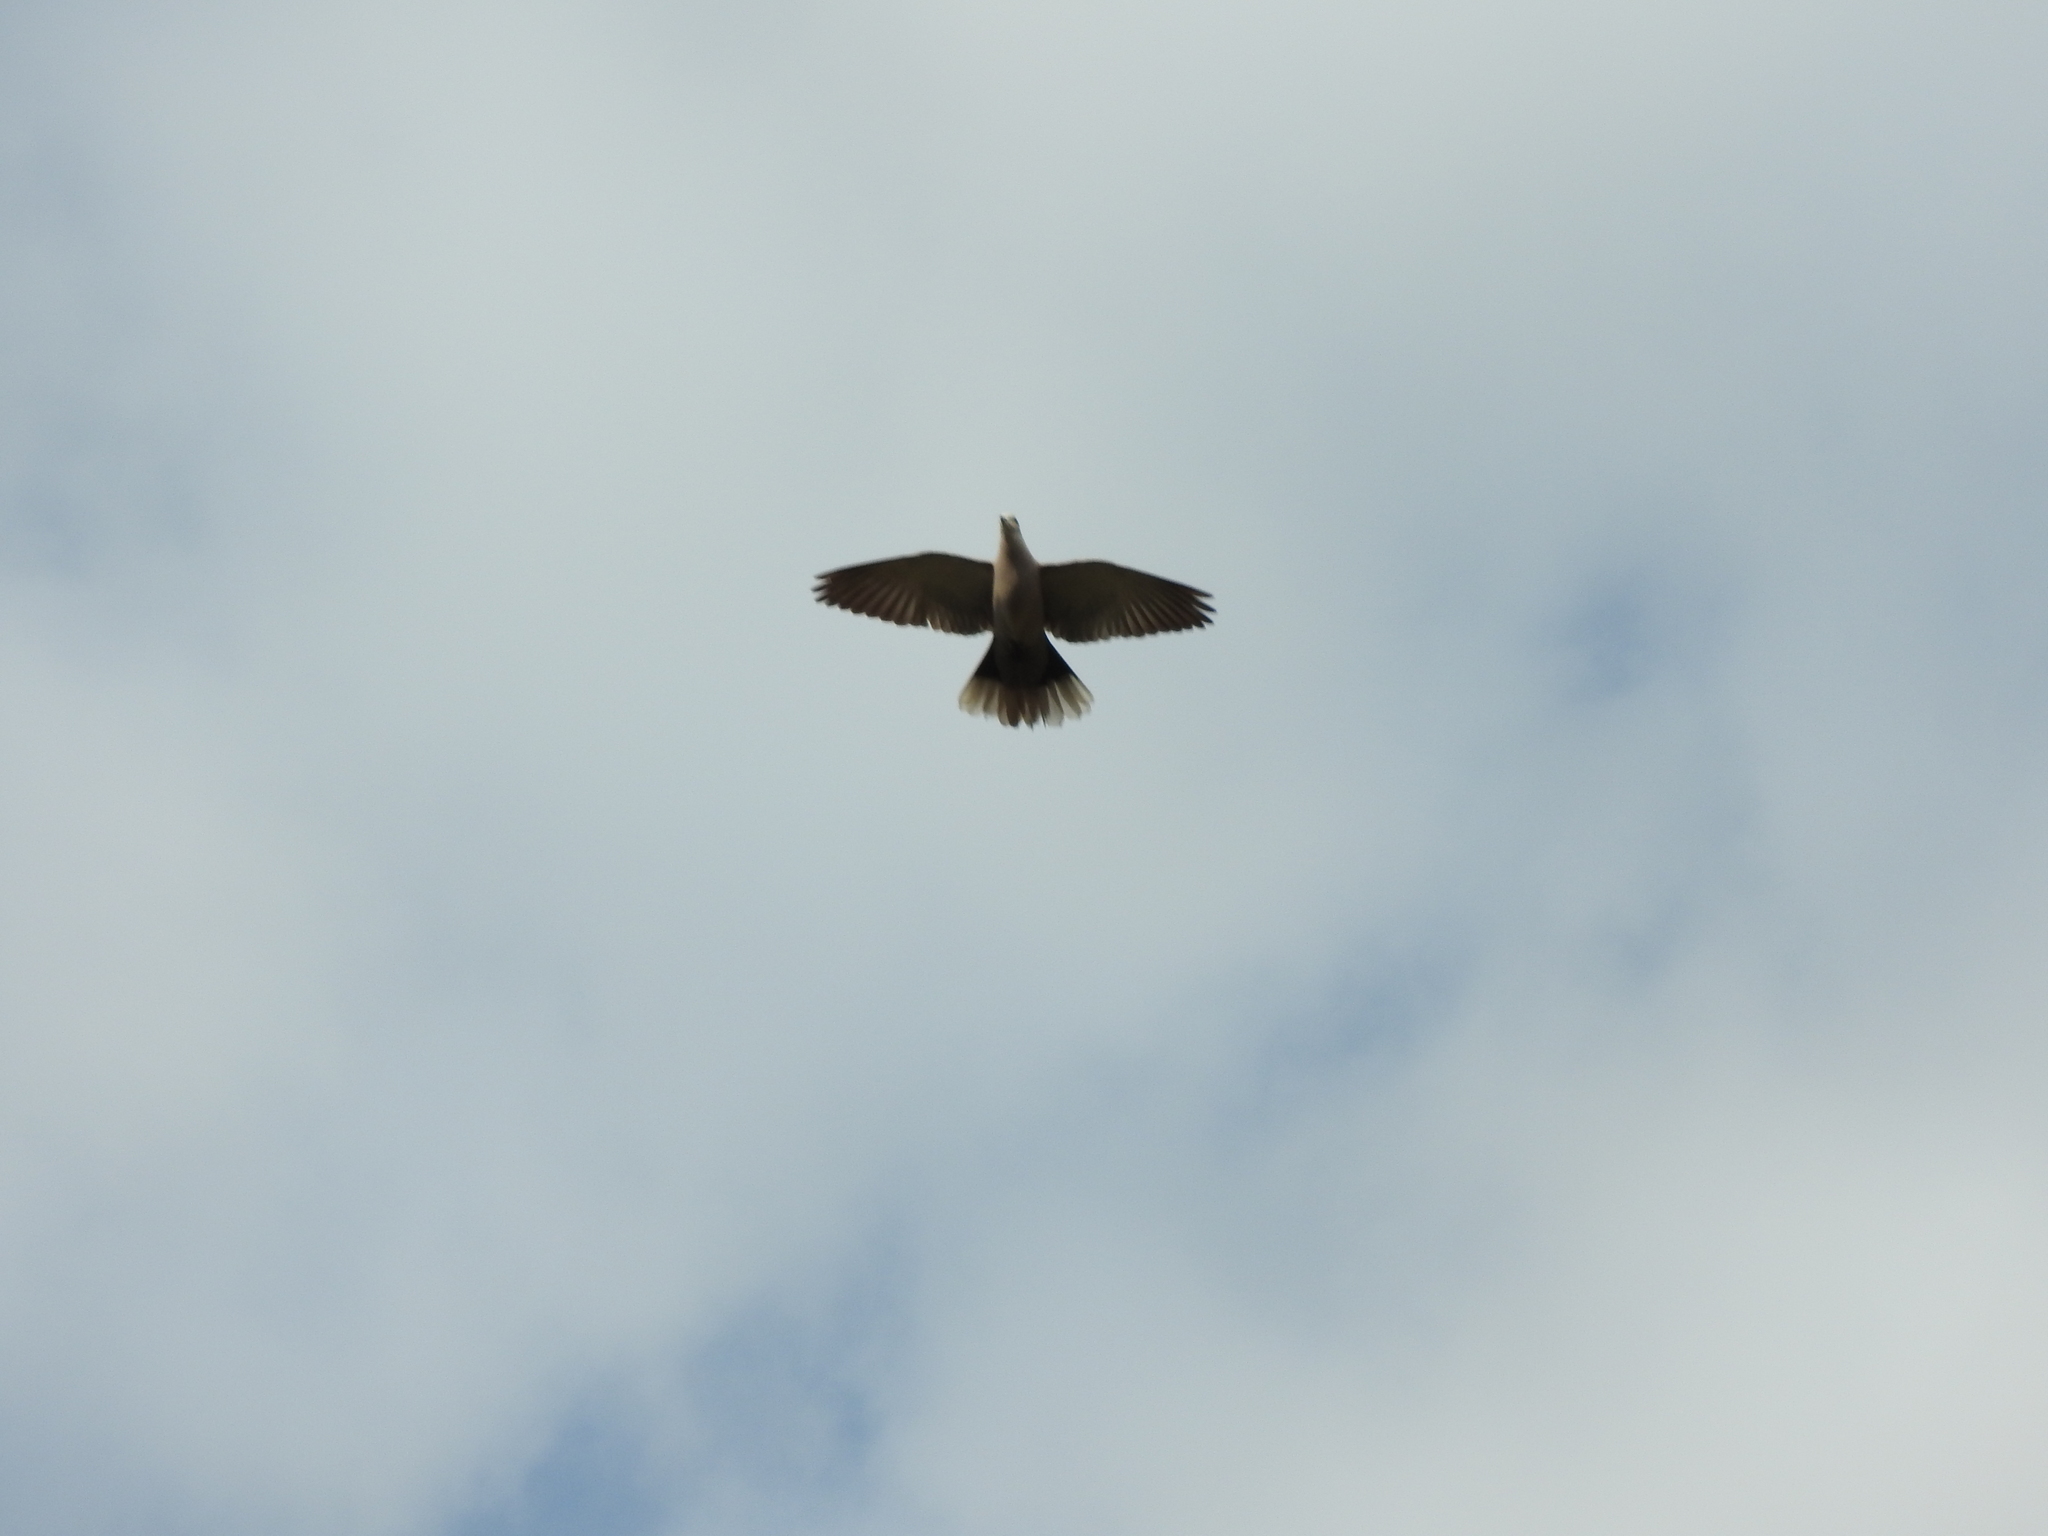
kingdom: Animalia
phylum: Chordata
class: Aves
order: Columbiformes
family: Columbidae
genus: Streptopelia
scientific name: Streptopelia decaocto
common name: Eurasian collared dove
